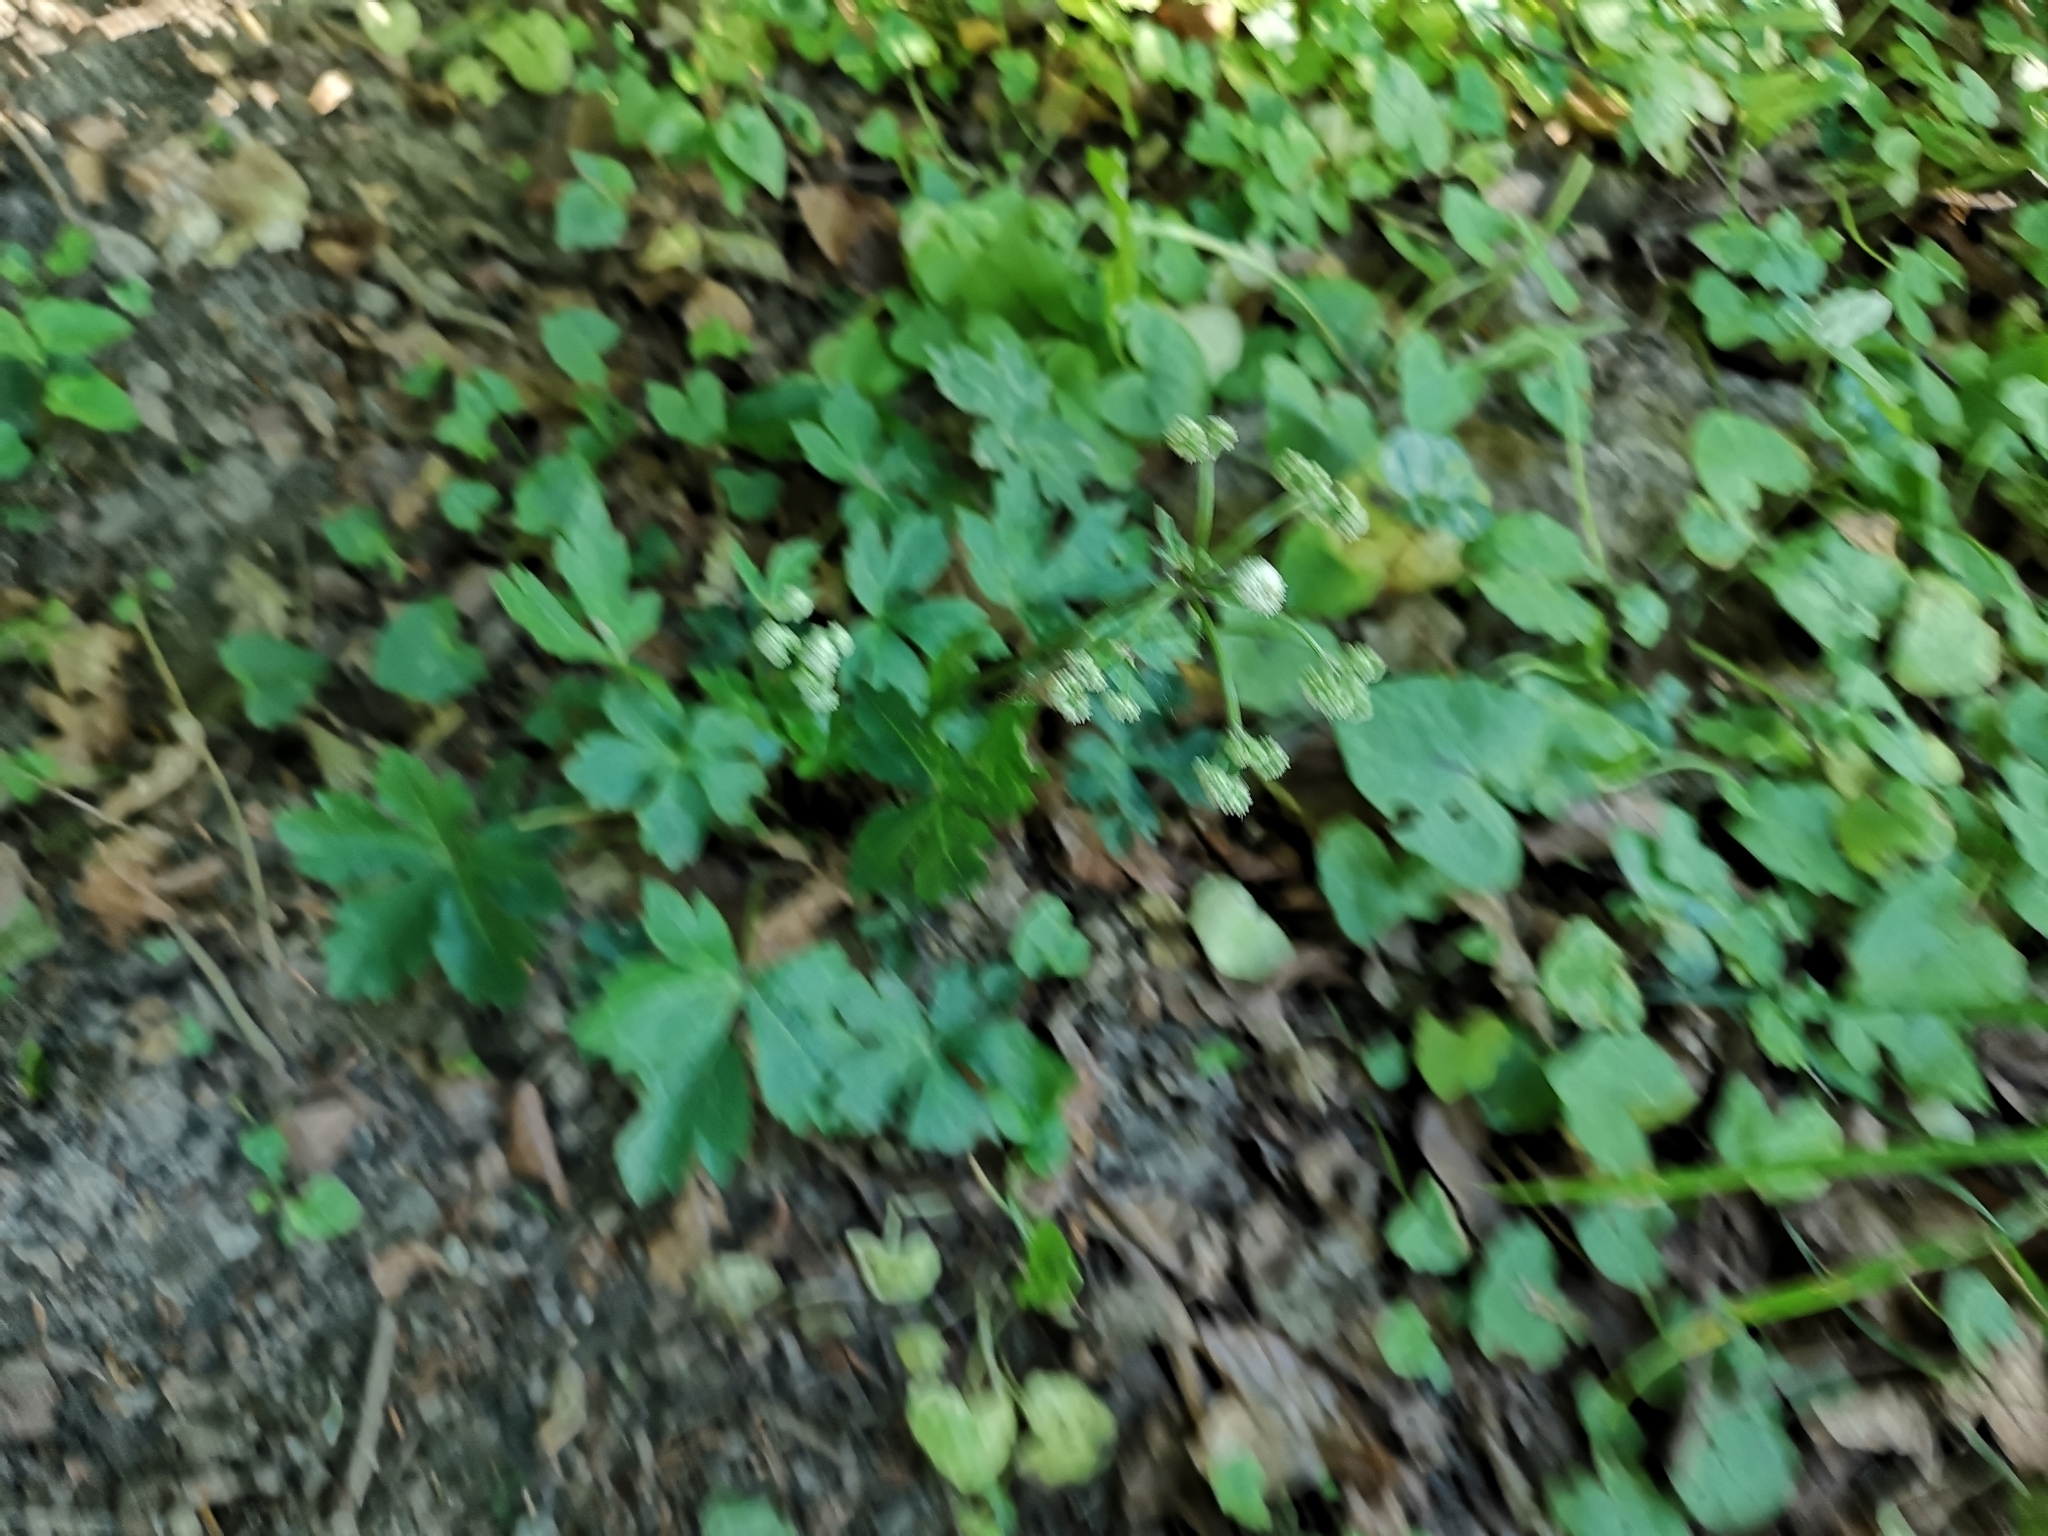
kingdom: Plantae
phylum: Tracheophyta
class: Magnoliopsida
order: Apiales
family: Apiaceae
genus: Sanicula
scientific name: Sanicula europaea
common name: Sanicle
